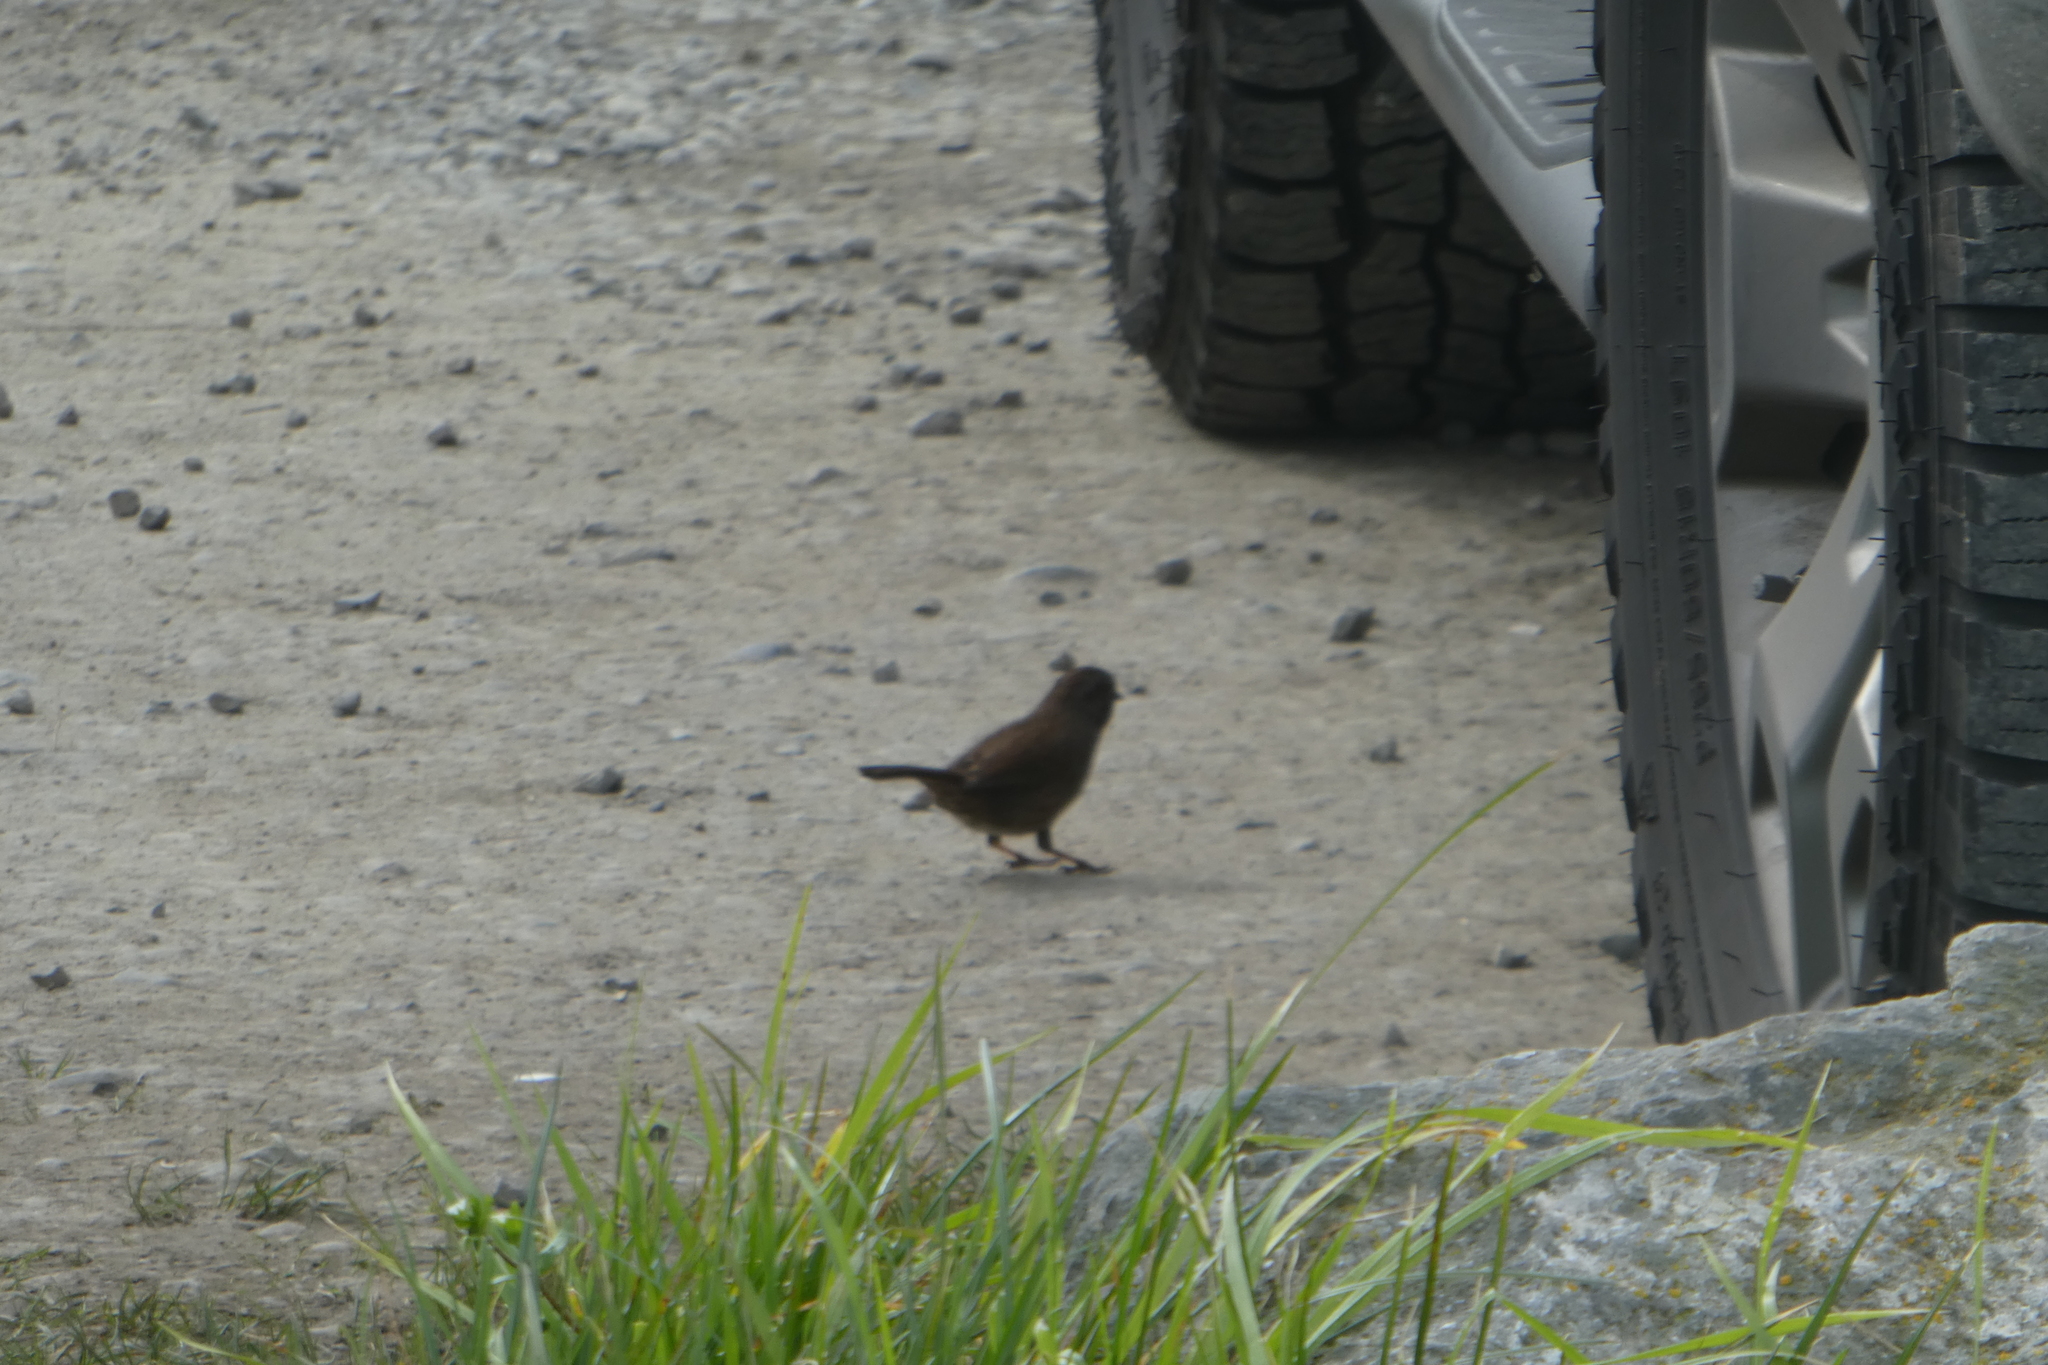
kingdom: Animalia
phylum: Chordata
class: Aves
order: Passeriformes
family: Passerellidae
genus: Melospiza
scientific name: Melospiza melodia
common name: Song sparrow
